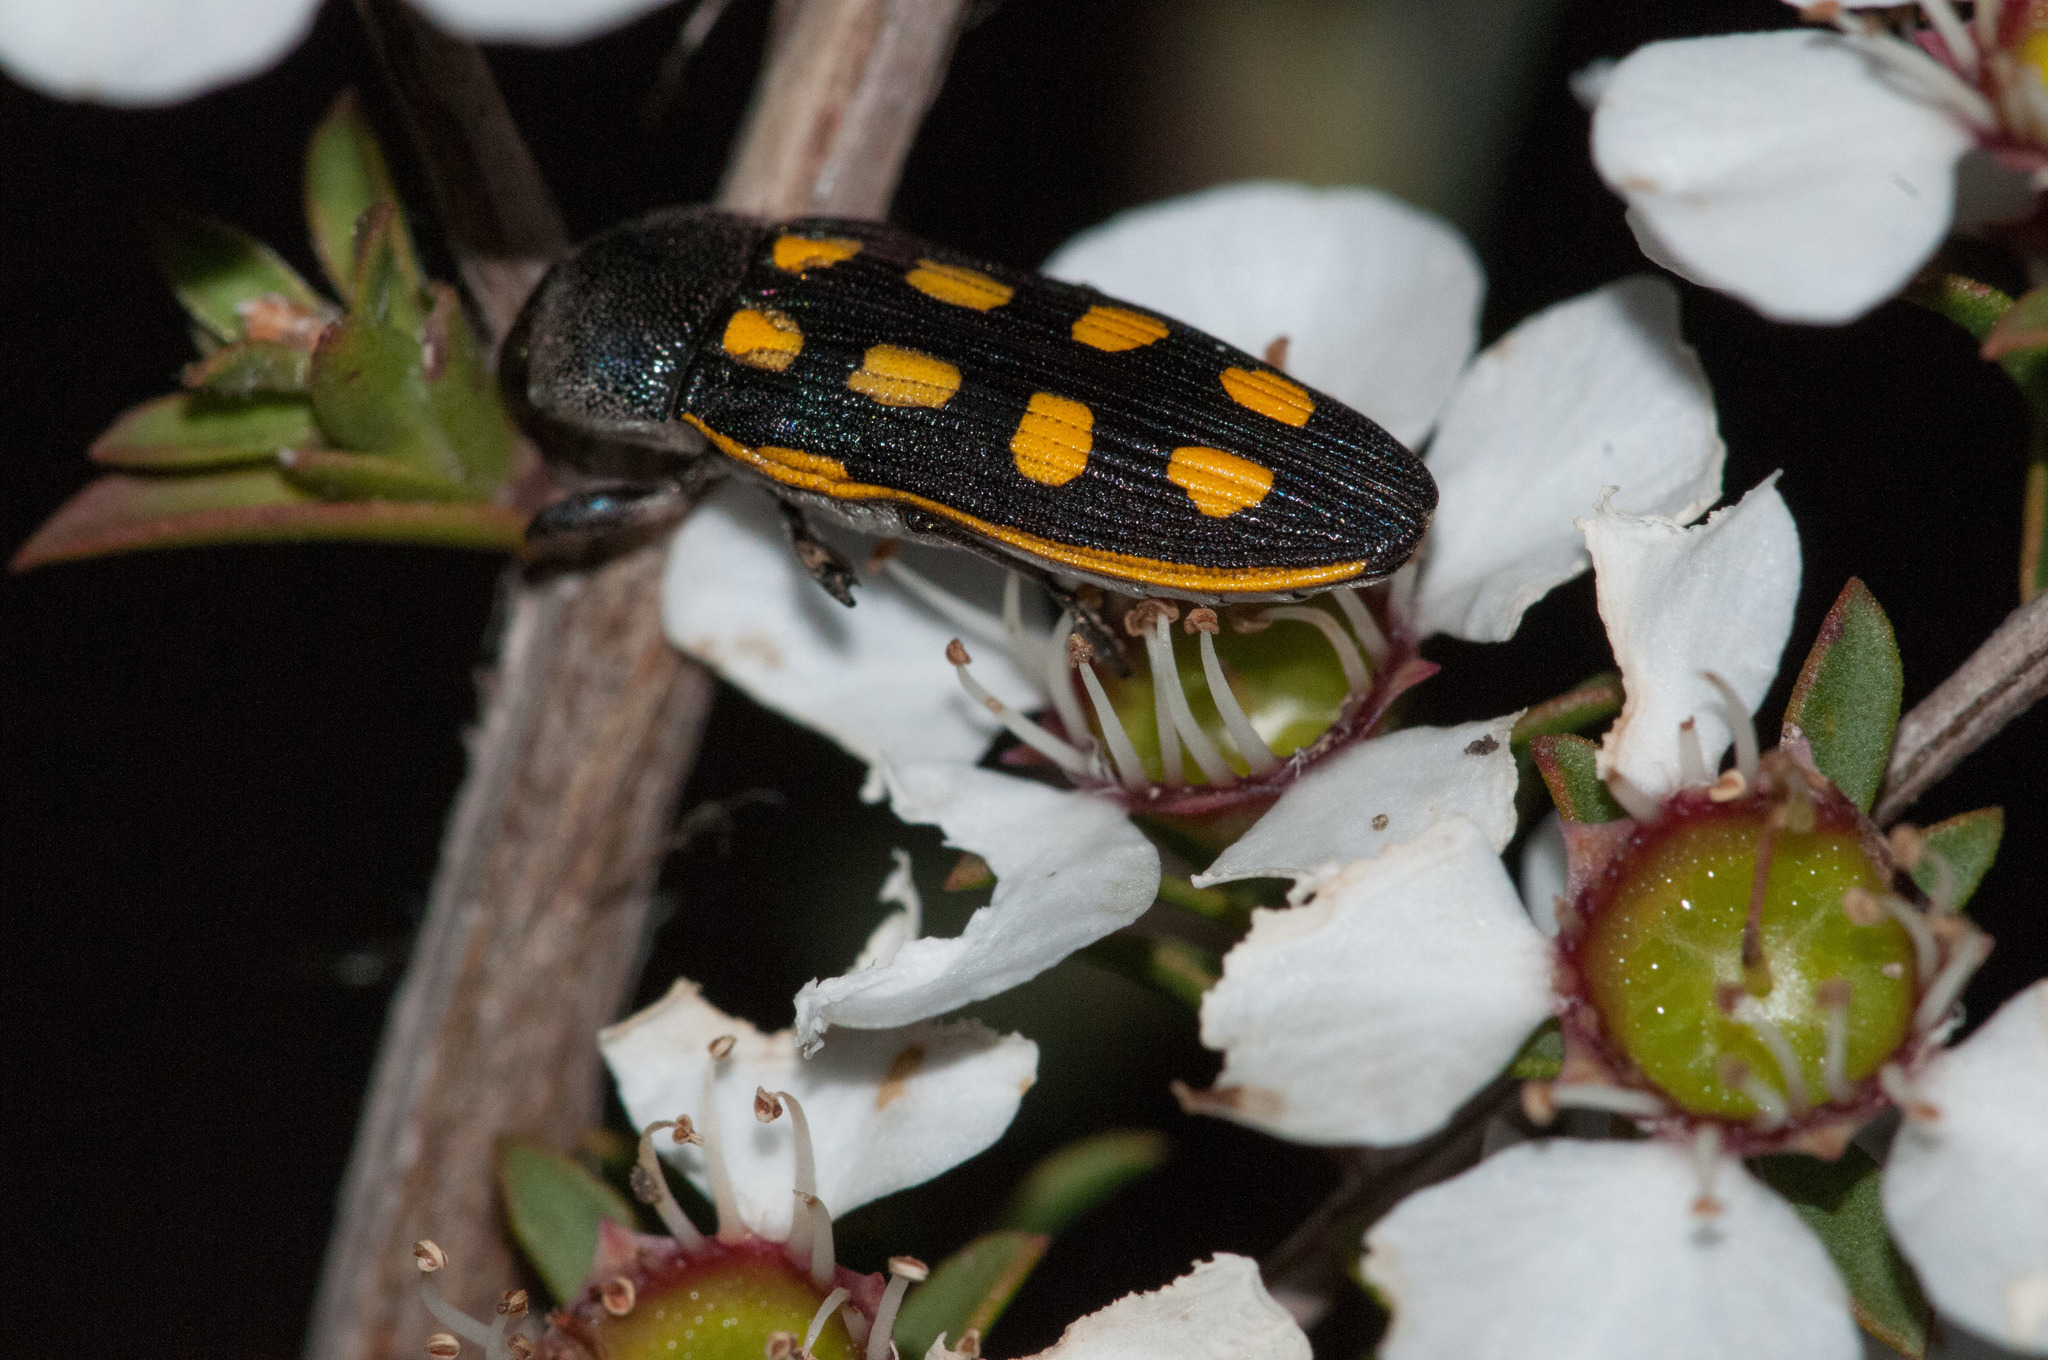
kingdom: Animalia
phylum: Arthropoda
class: Insecta
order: Coleoptera
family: Buprestidae
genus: Castiarina
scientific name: Castiarina xanthopilosa
